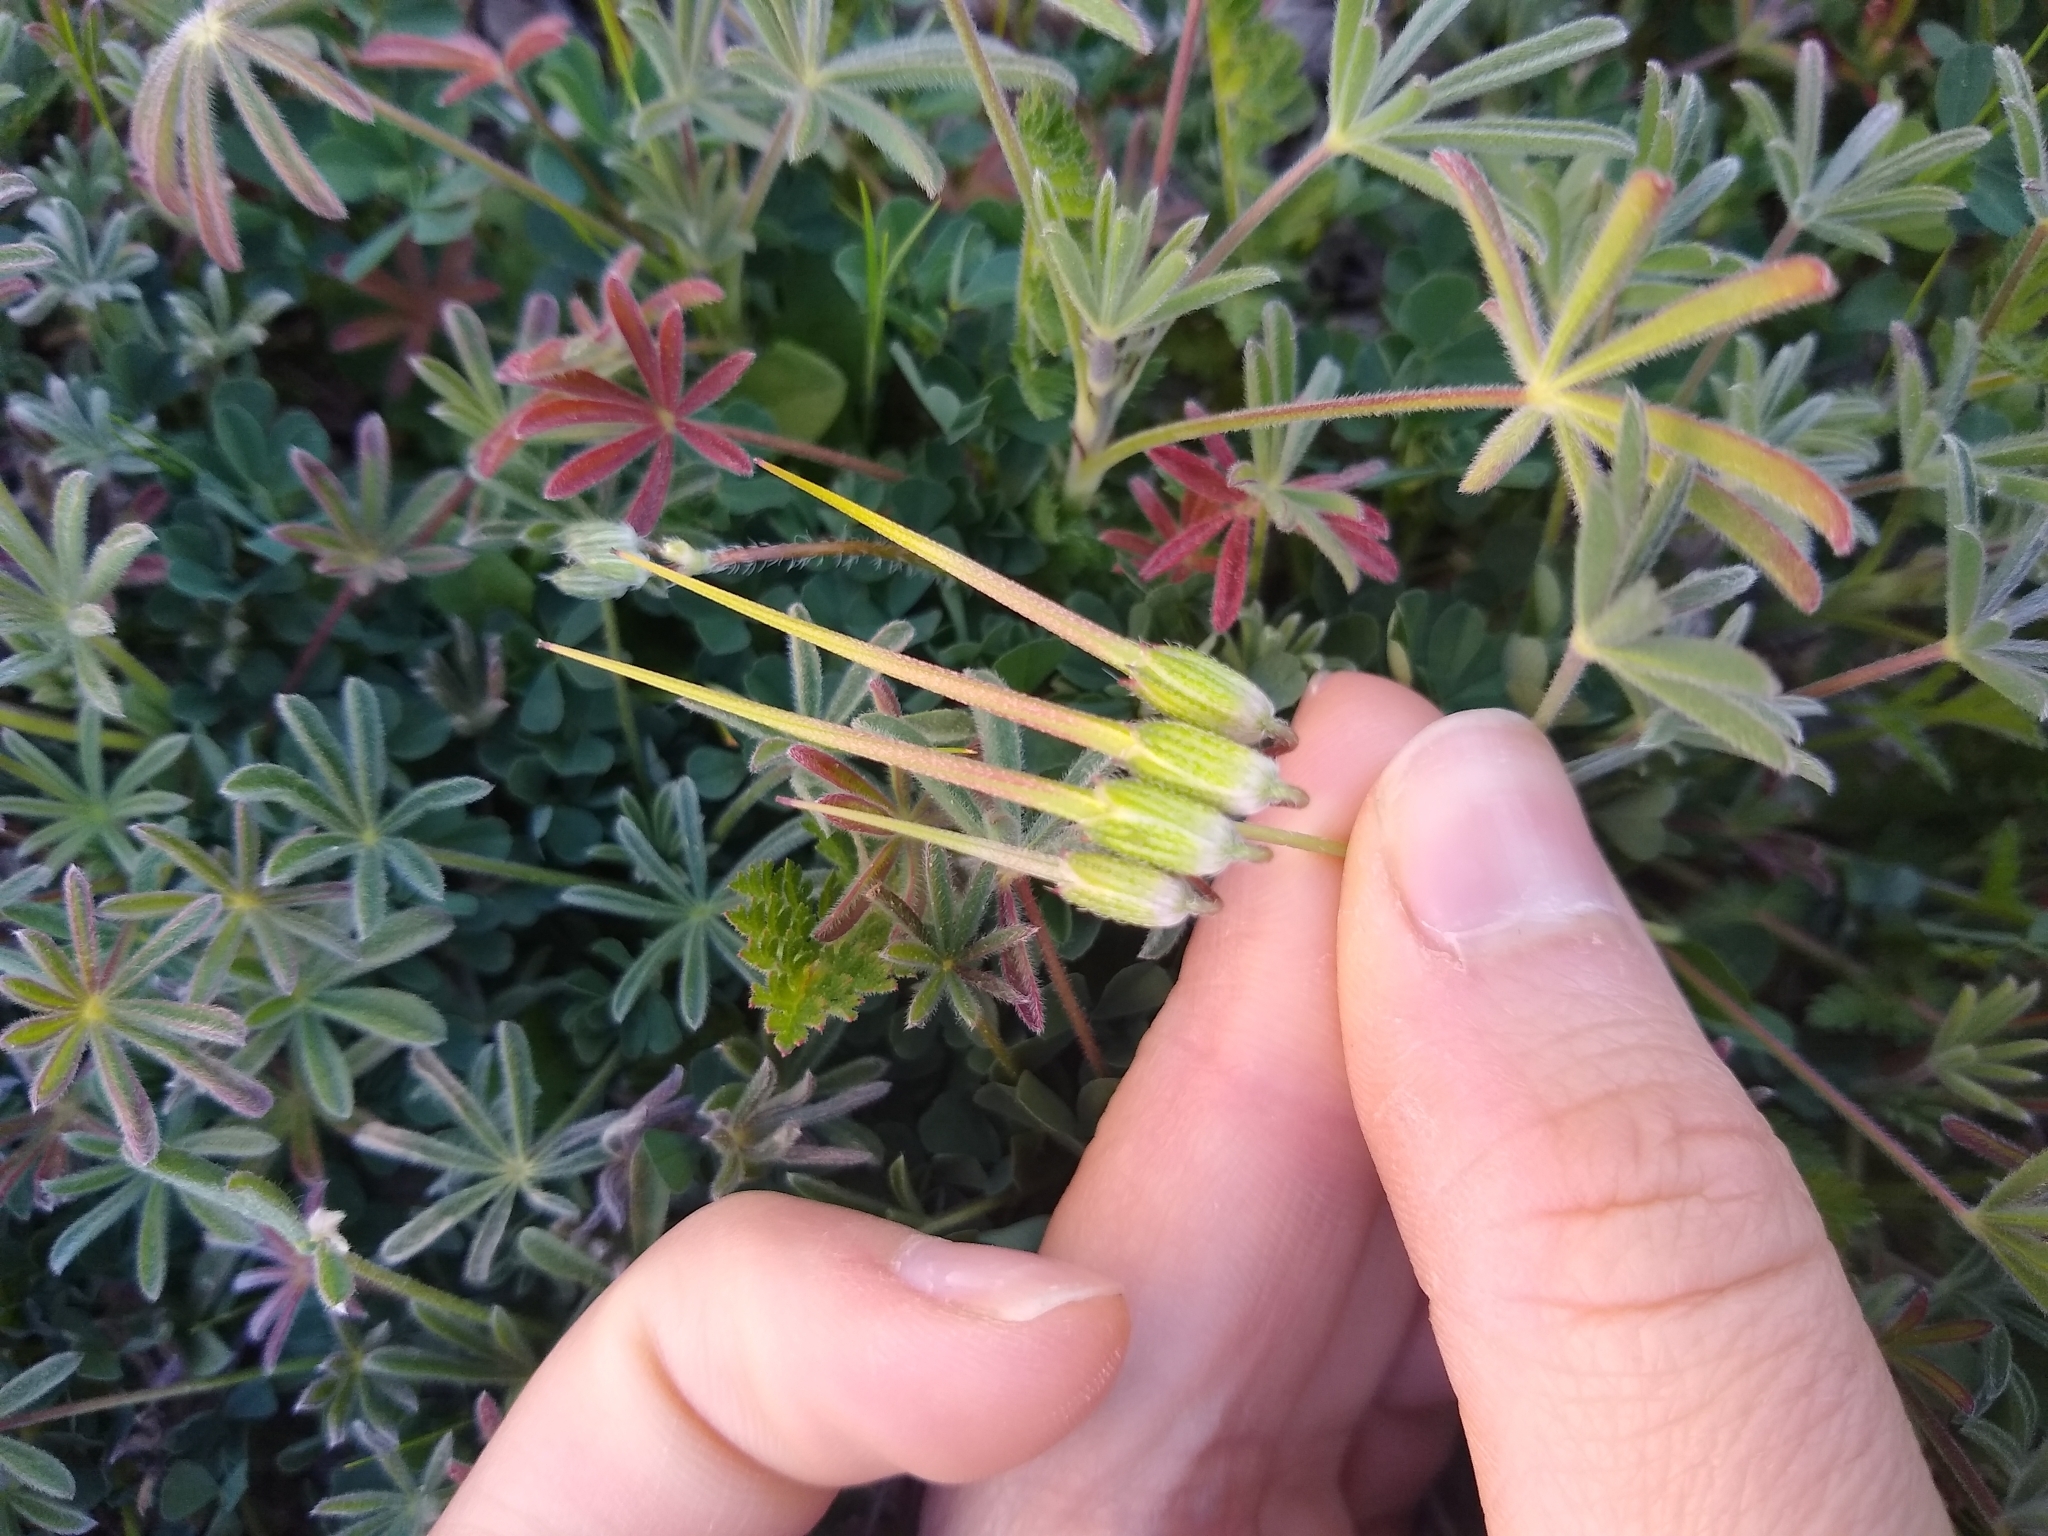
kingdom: Plantae
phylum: Tracheophyta
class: Magnoliopsida
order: Geraniales
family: Geraniaceae
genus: Erodium
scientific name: Erodium cicutarium
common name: Common stork's-bill
